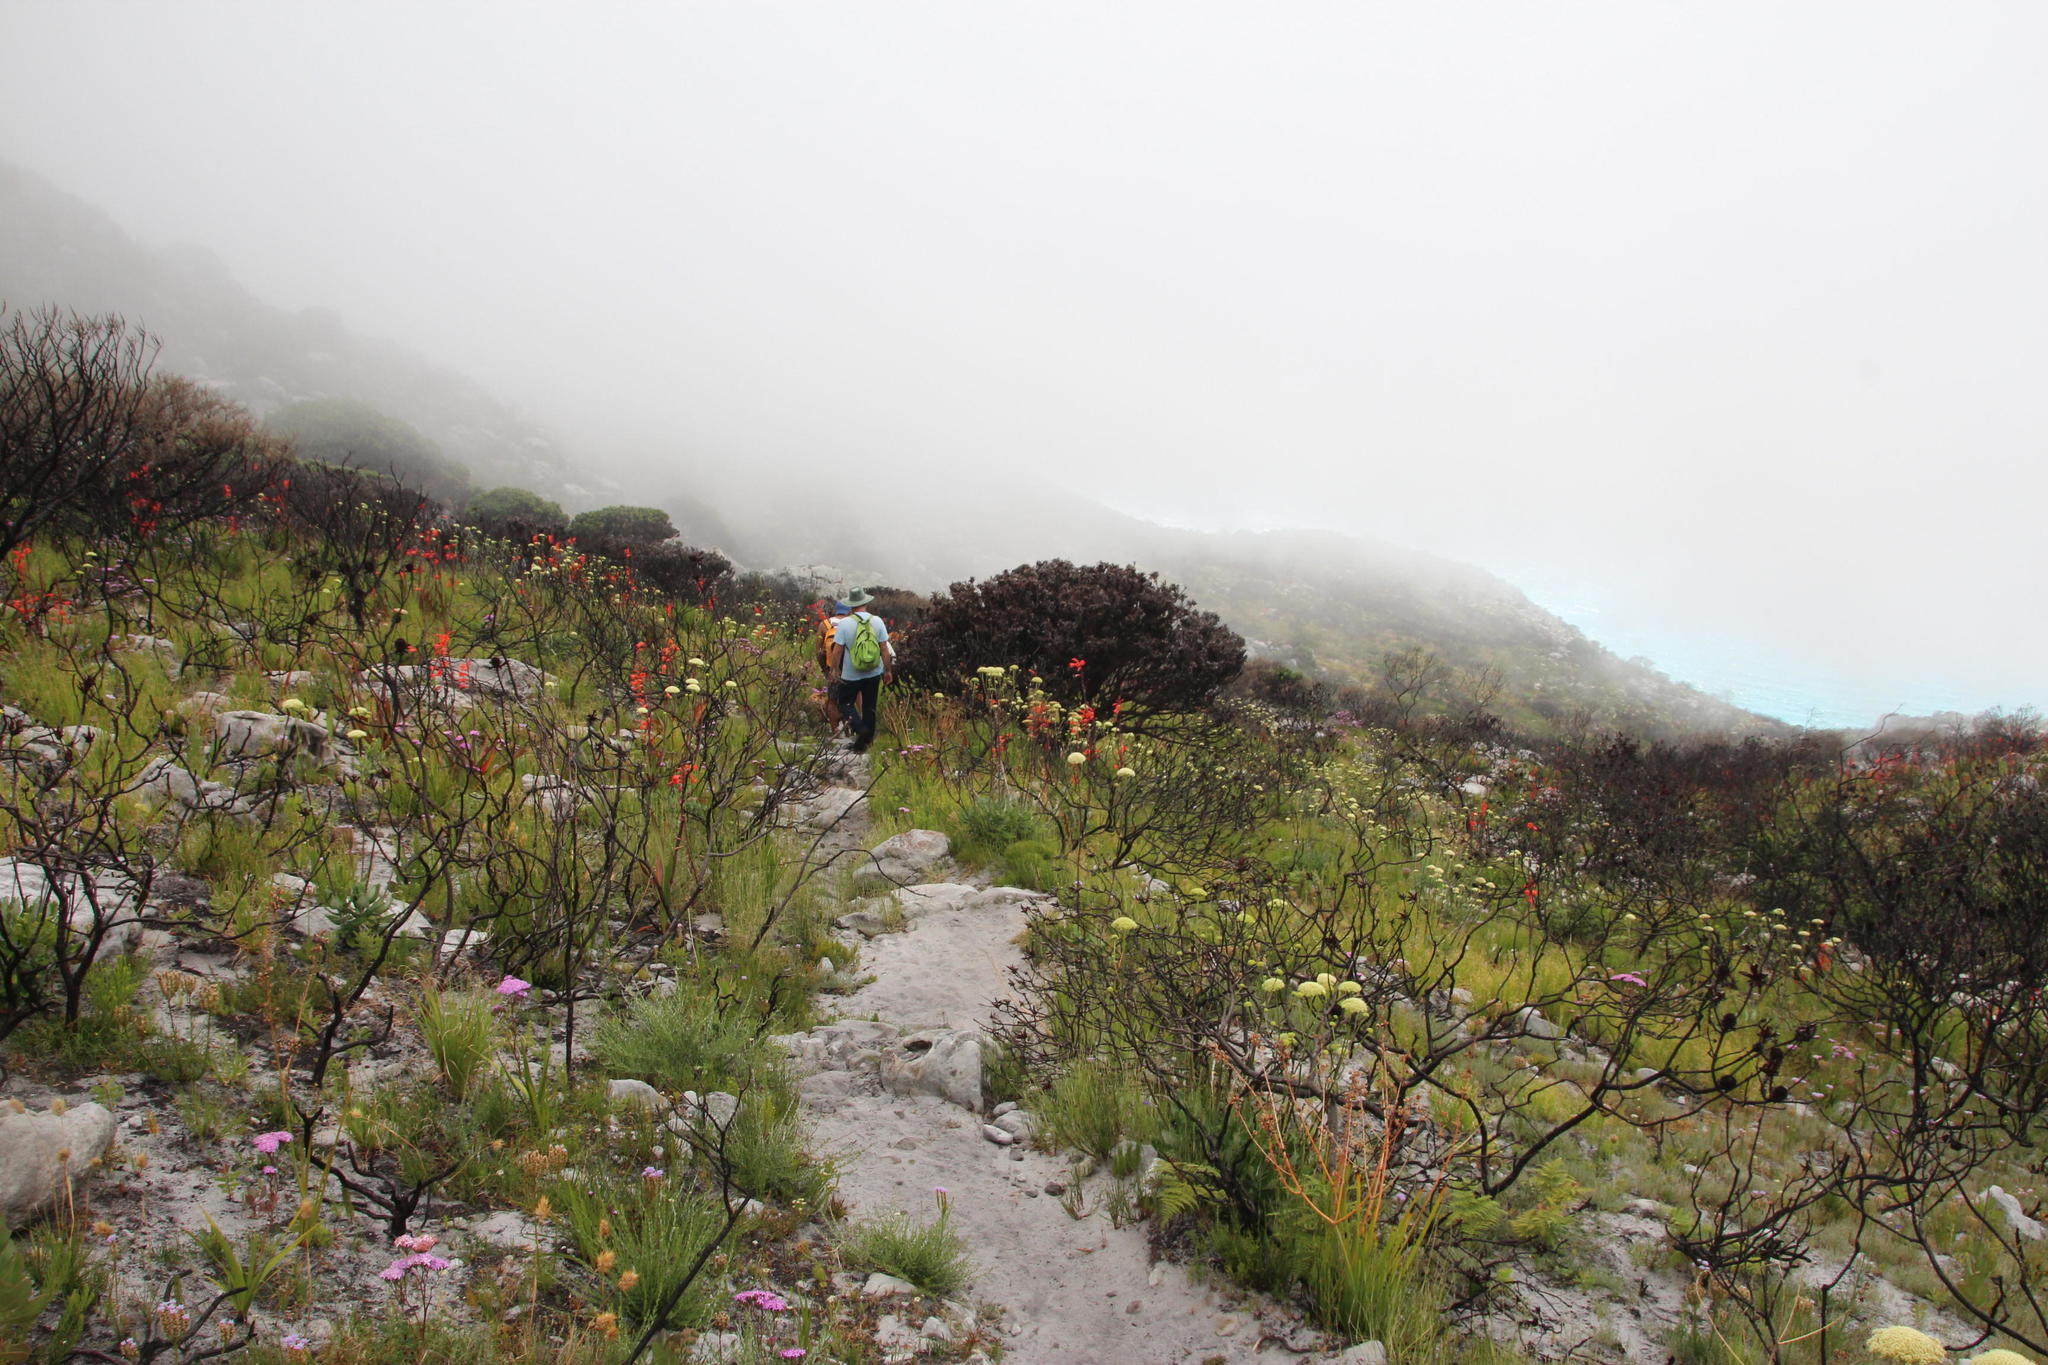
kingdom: Plantae
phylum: Tracheophyta
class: Magnoliopsida
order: Apiales
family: Apiaceae
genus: Hermas
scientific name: Hermas villosa
